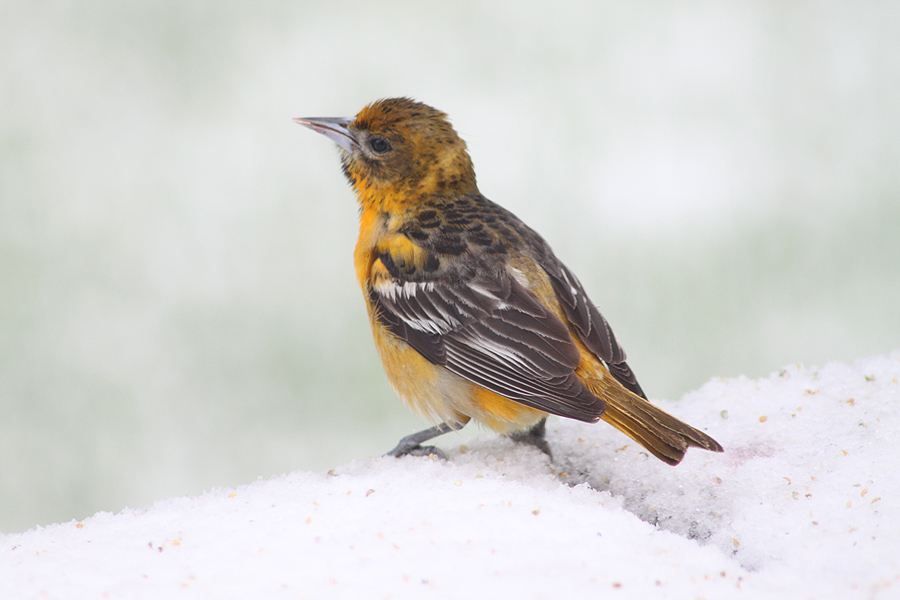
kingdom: Animalia
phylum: Chordata
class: Aves
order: Passeriformes
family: Icteridae
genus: Icterus
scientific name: Icterus galbula
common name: Baltimore oriole
